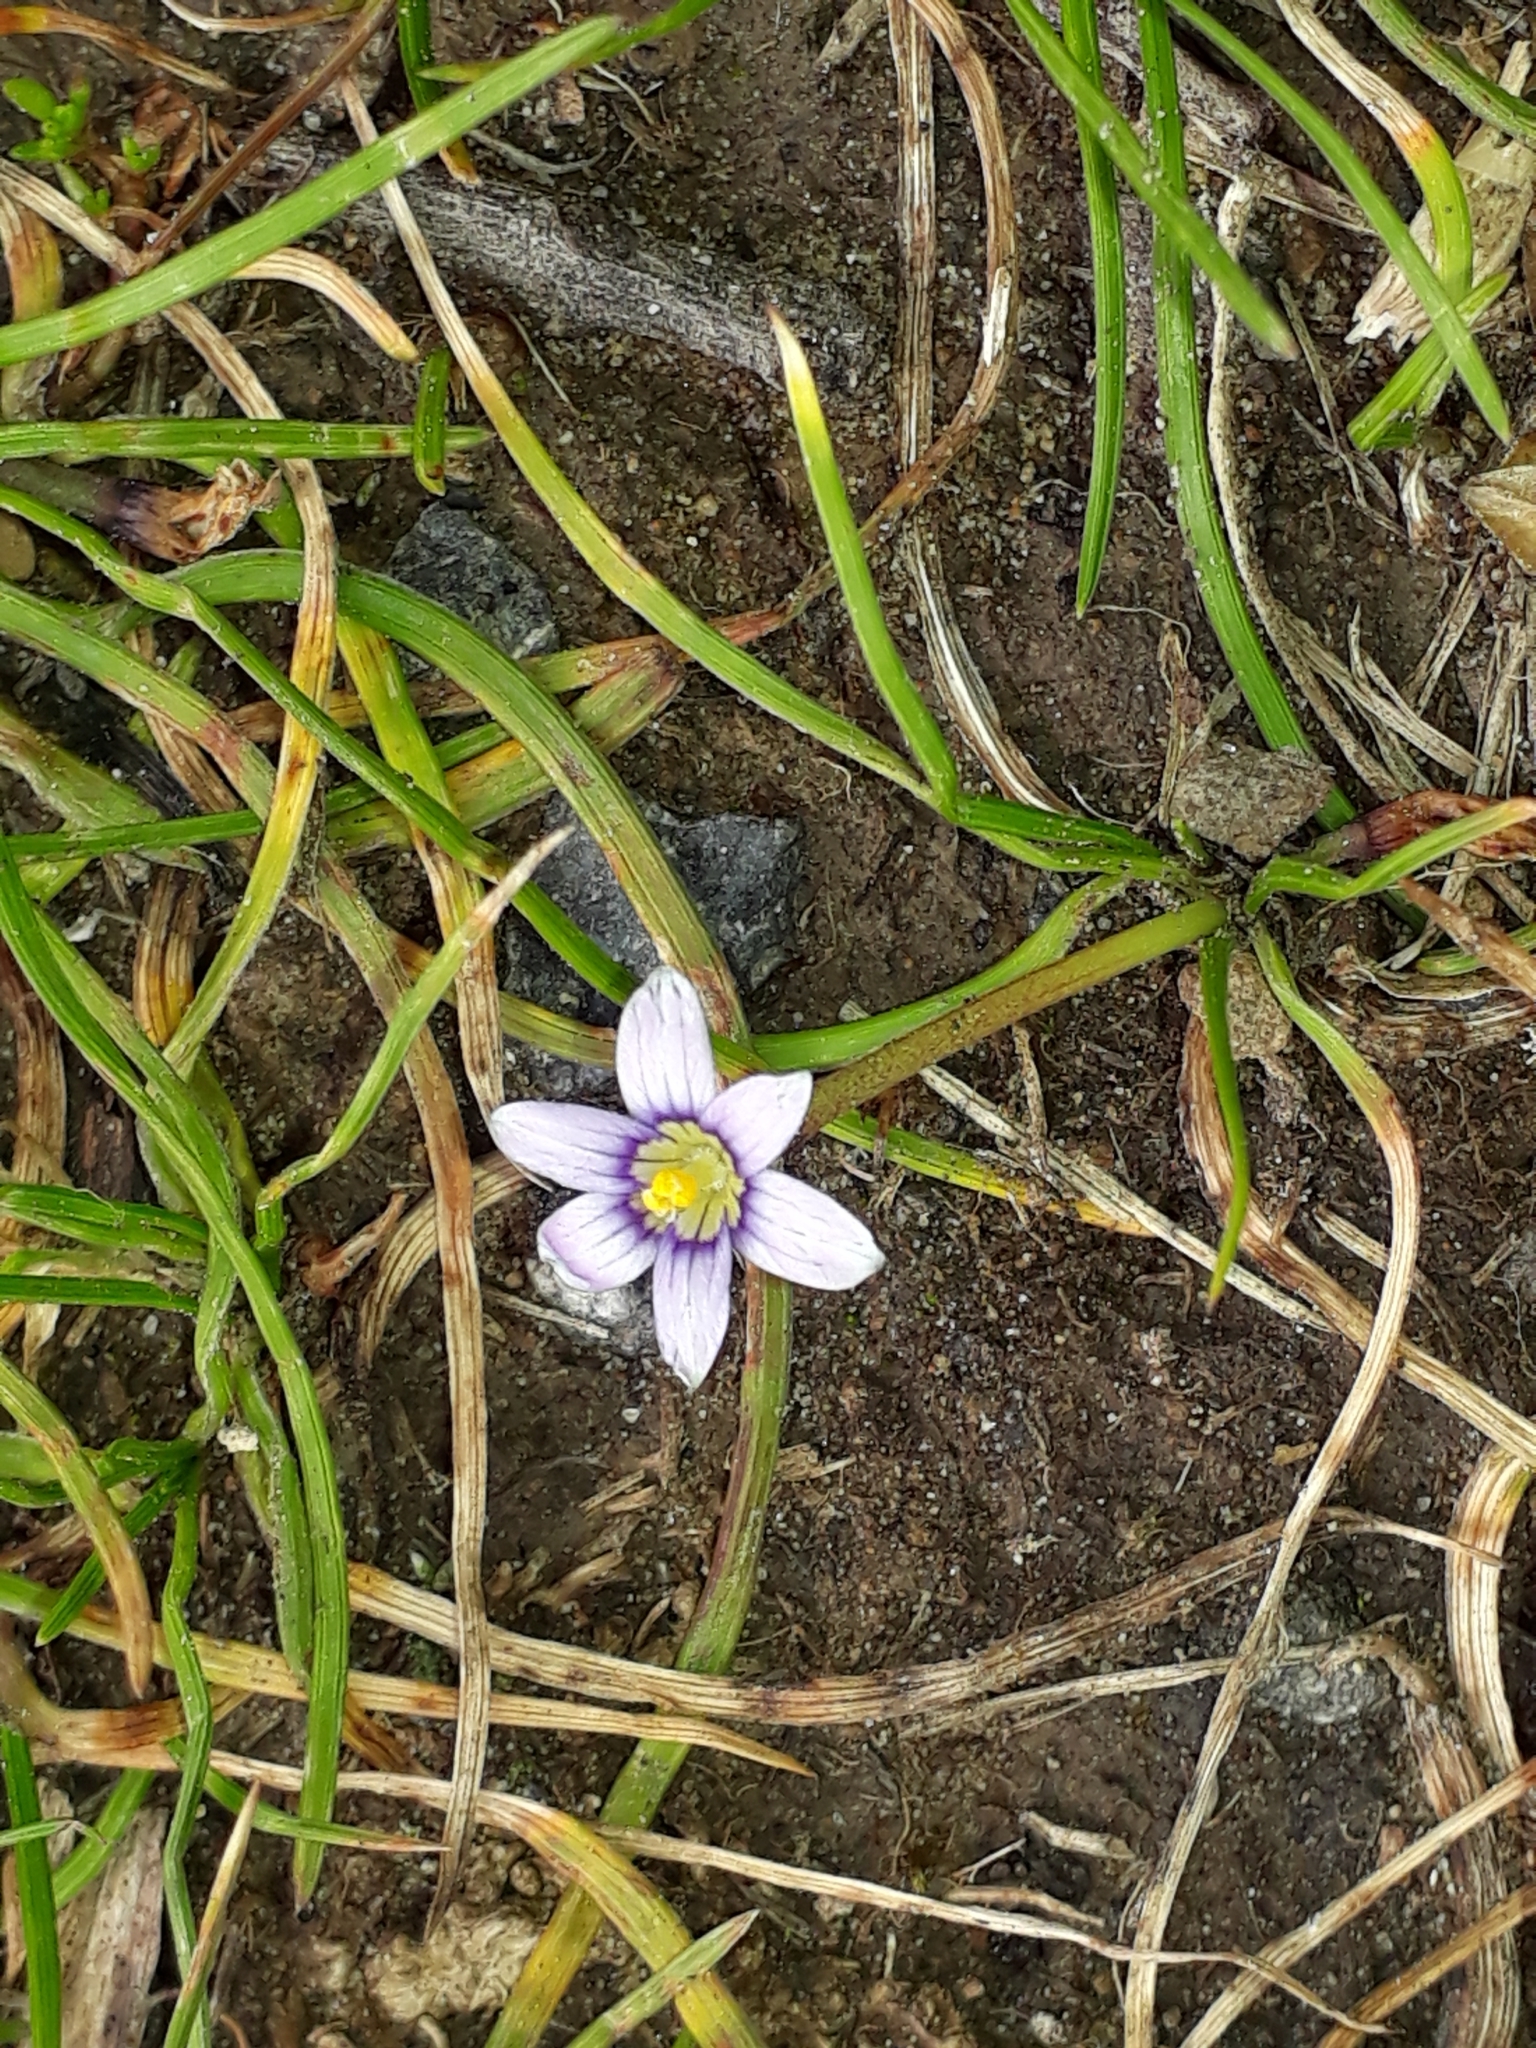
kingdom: Plantae
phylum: Tracheophyta
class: Liliopsida
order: Asparagales
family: Iridaceae
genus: Romulea
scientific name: Romulea minutiflora
